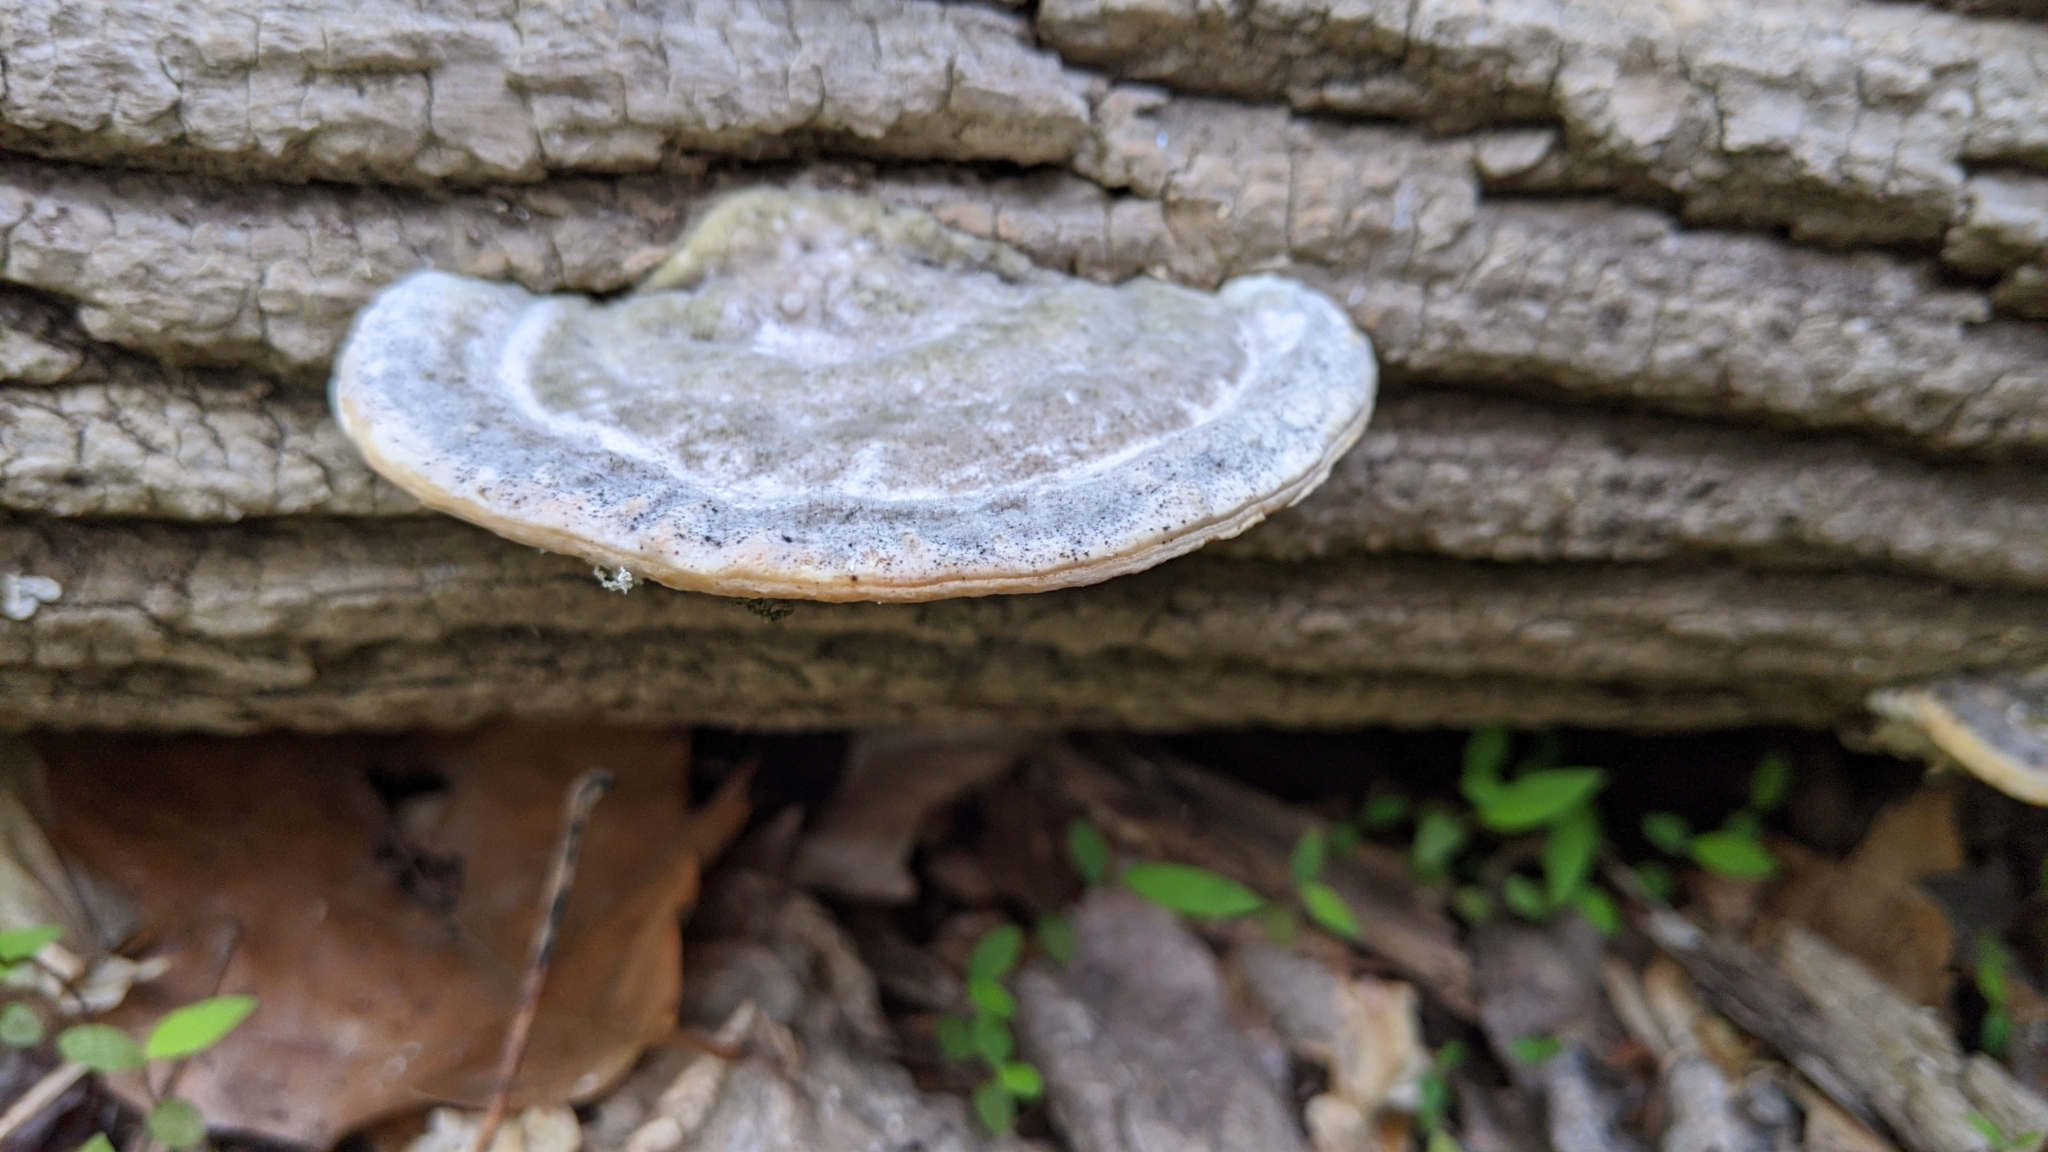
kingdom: Fungi
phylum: Basidiomycota
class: Agaricomycetes
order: Polyporales
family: Polyporaceae
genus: Trametes
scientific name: Trametes gibbosa
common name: Lumpy bracket
